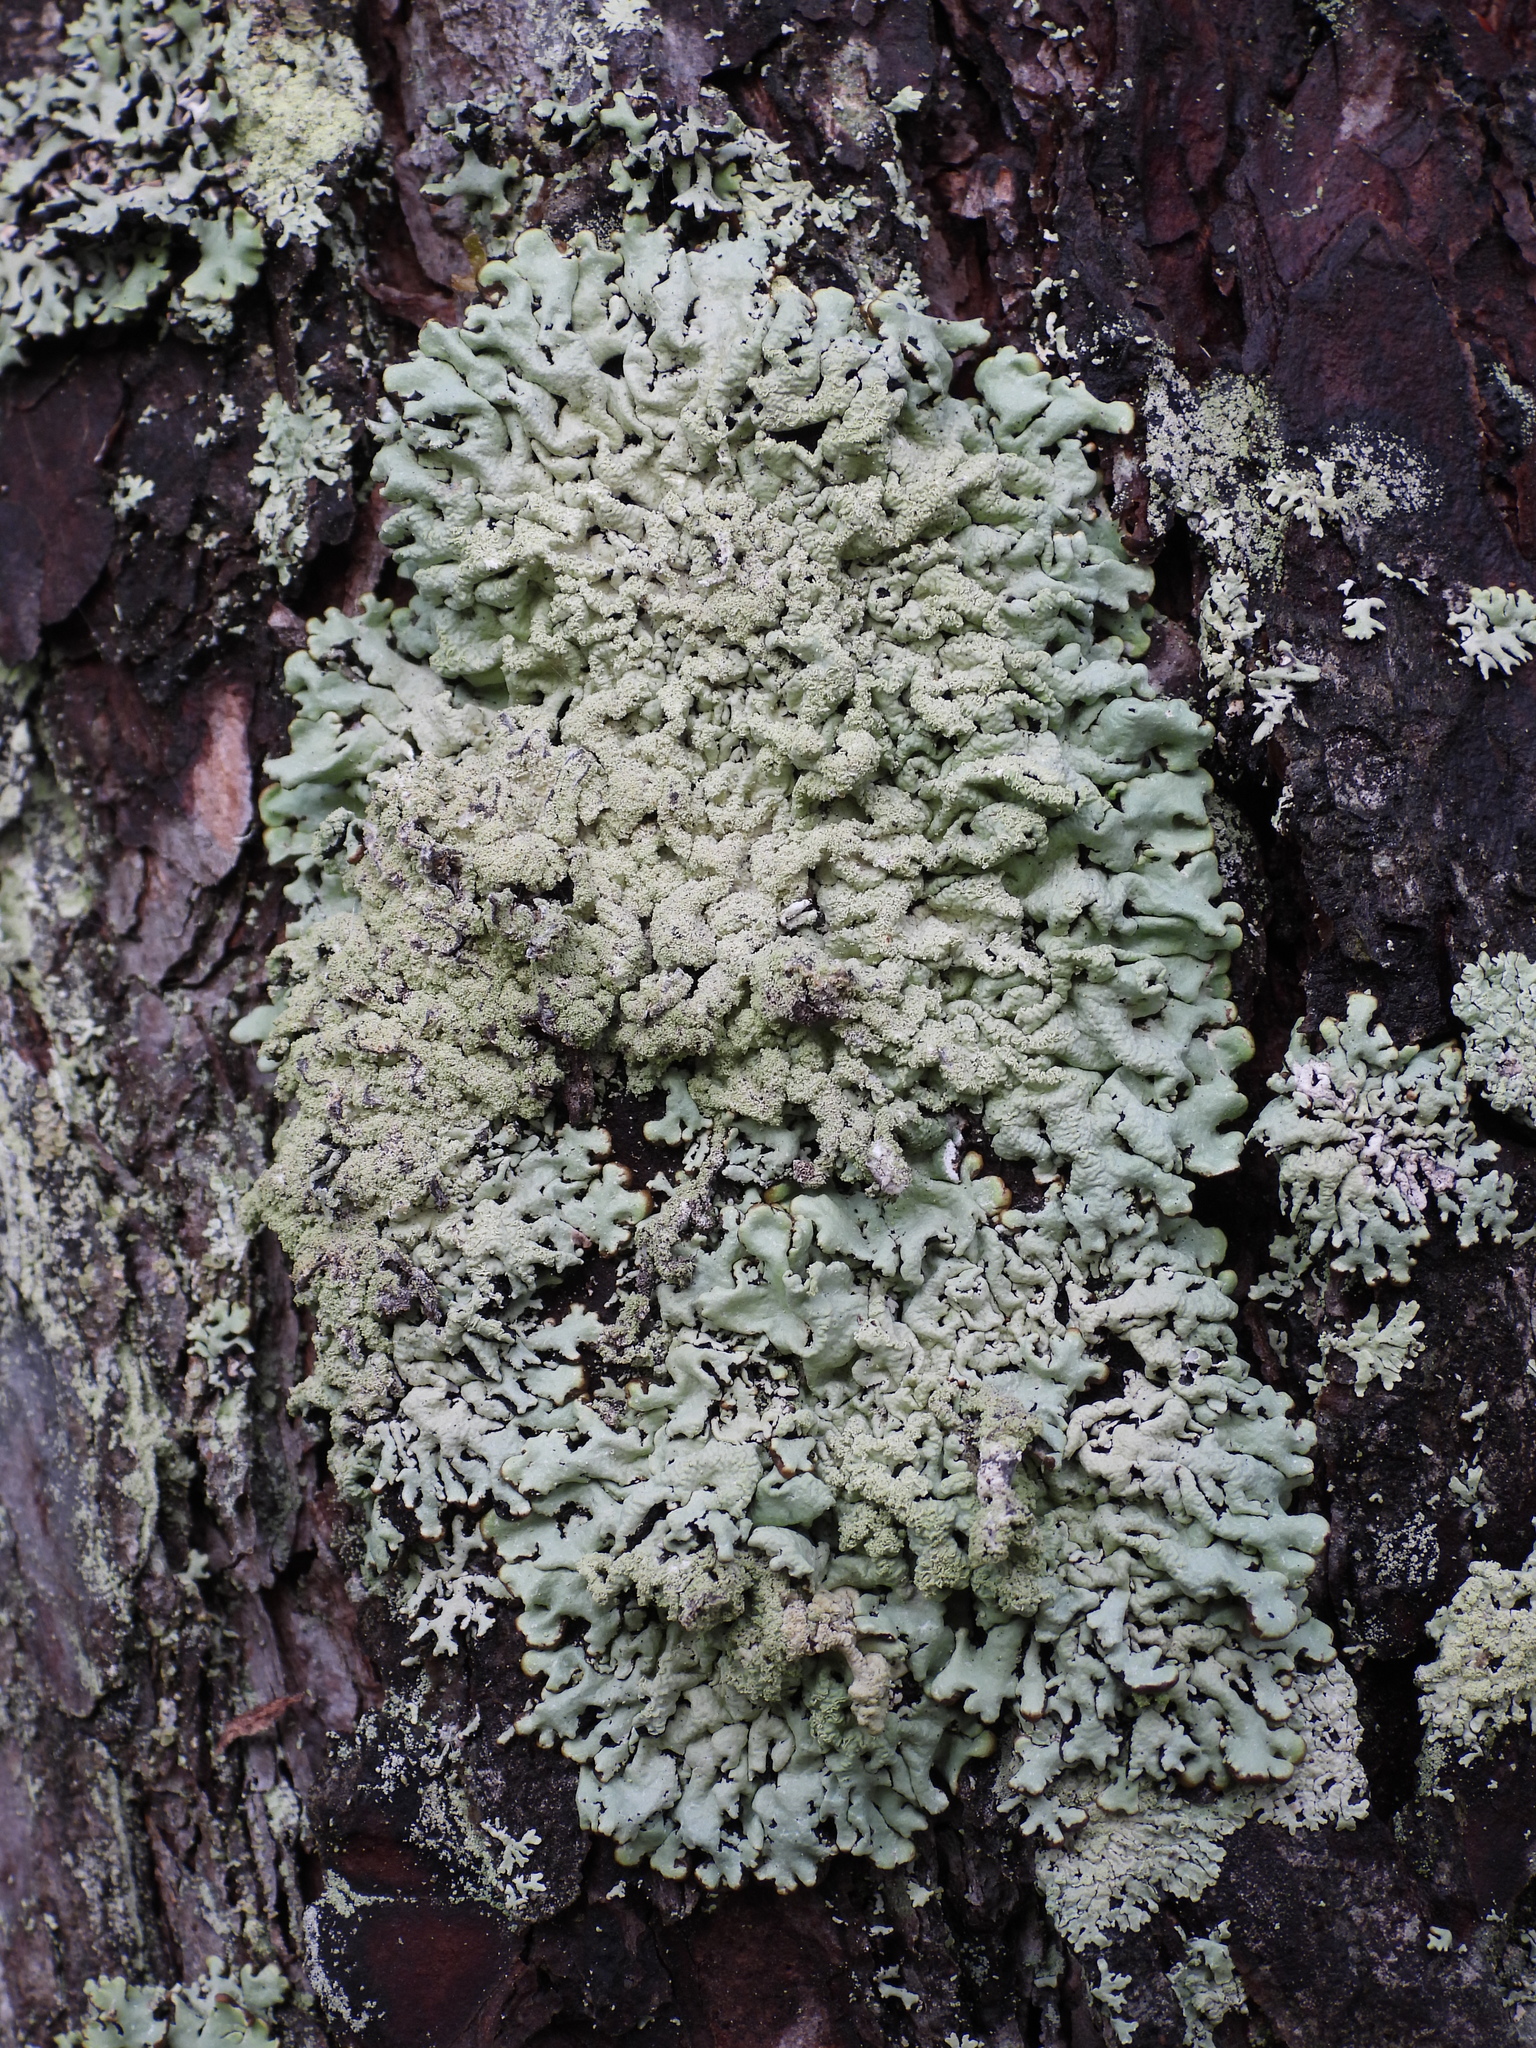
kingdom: Fungi
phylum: Ascomycota
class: Lecanoromycetes
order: Lecanorales
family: Parmeliaceae
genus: Hypogymnia
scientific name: Hypogymnia farinacea
